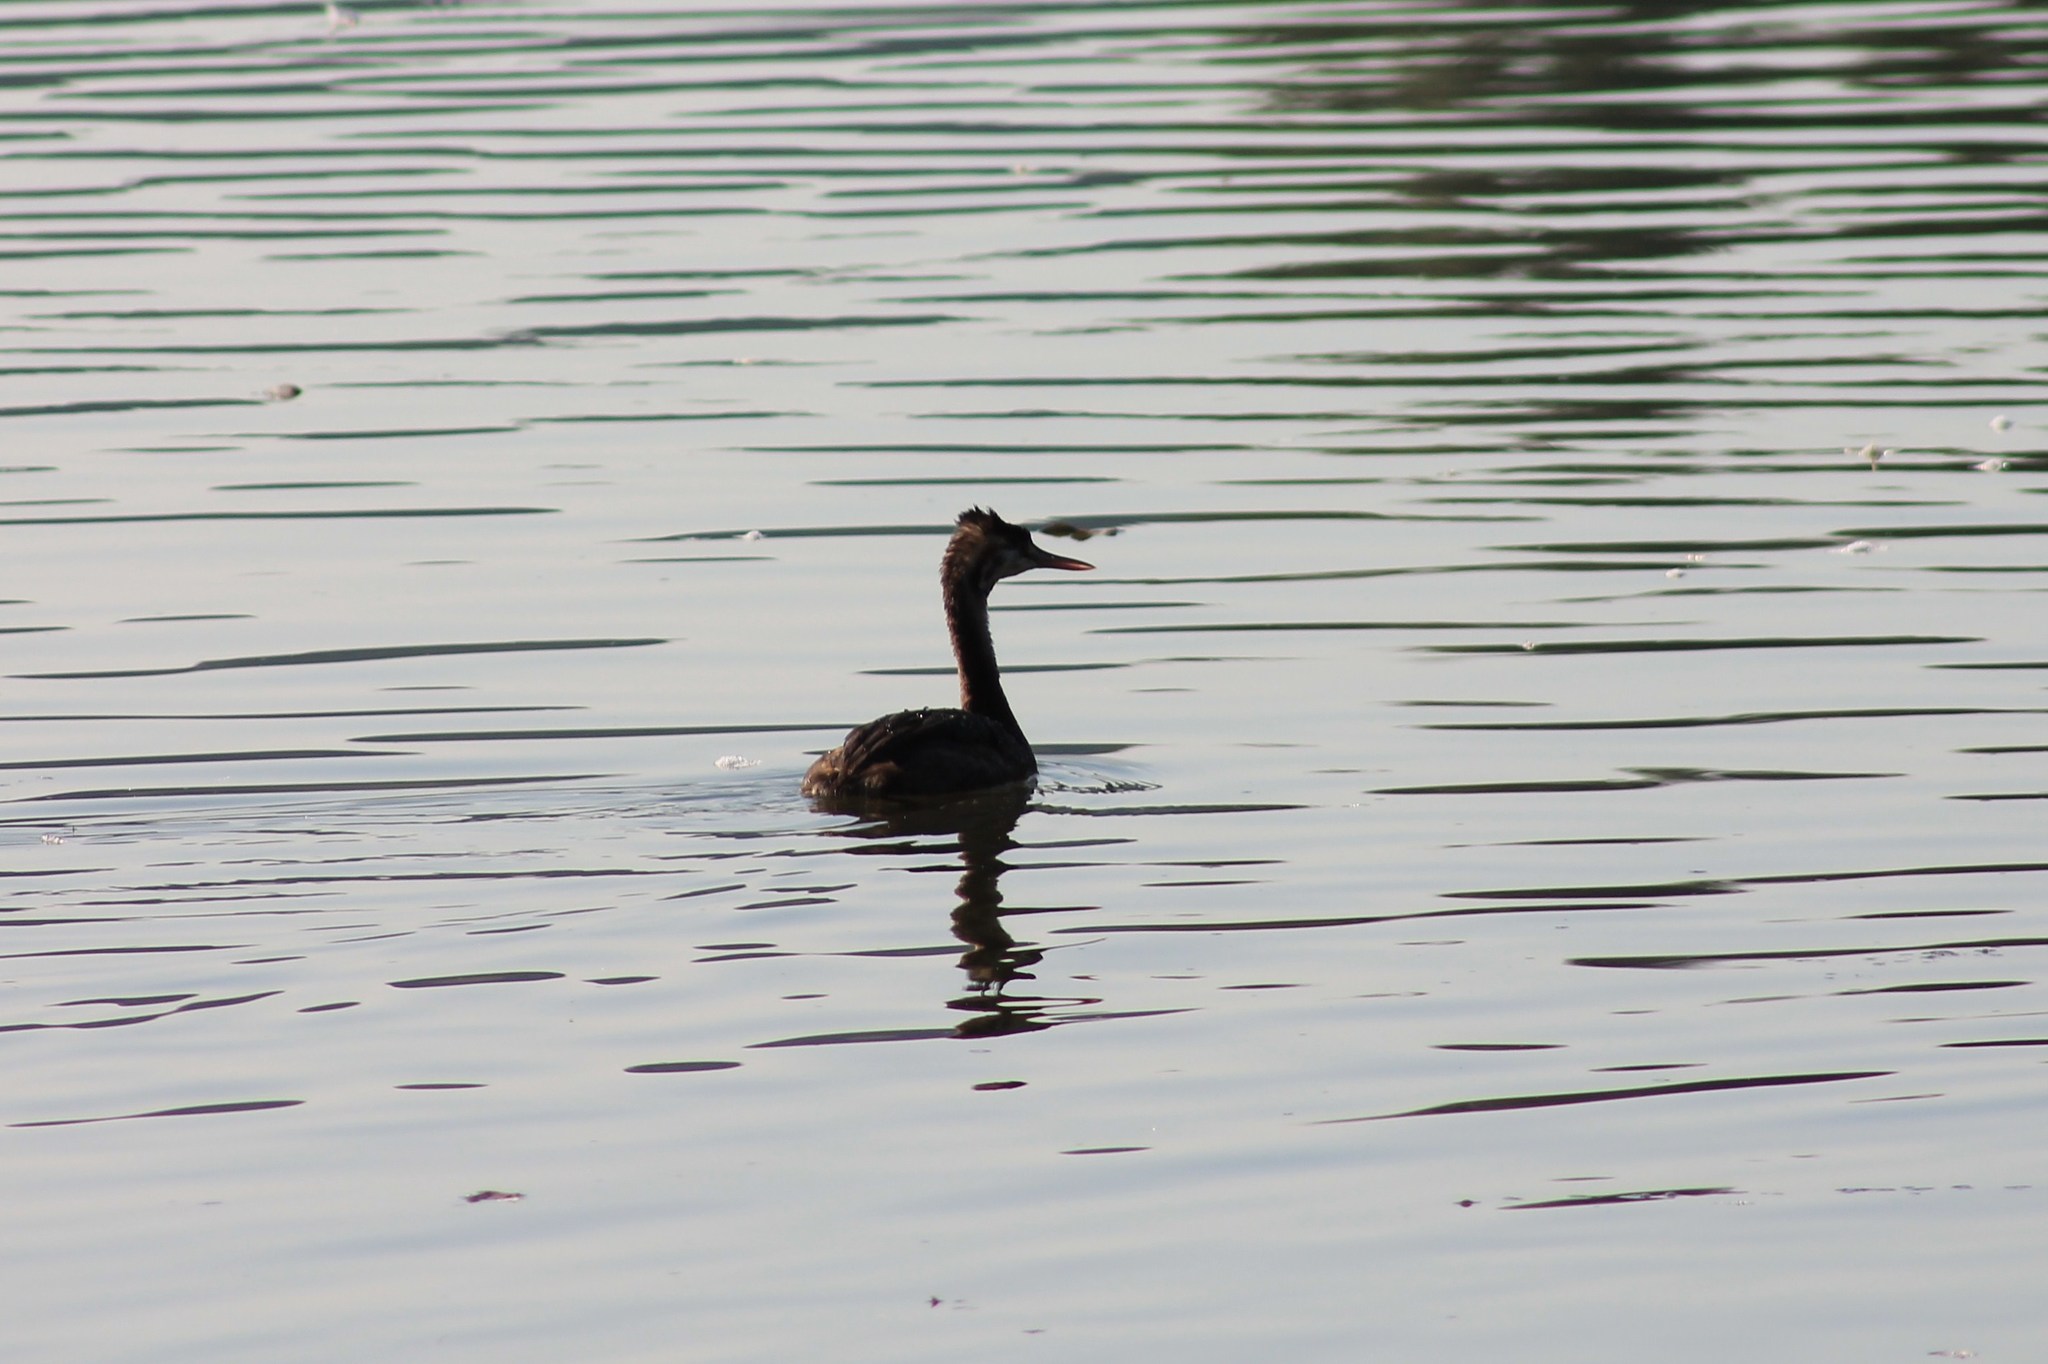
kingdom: Animalia
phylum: Chordata
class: Aves
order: Podicipediformes
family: Podicipedidae
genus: Podiceps
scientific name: Podiceps cristatus
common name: Great crested grebe
